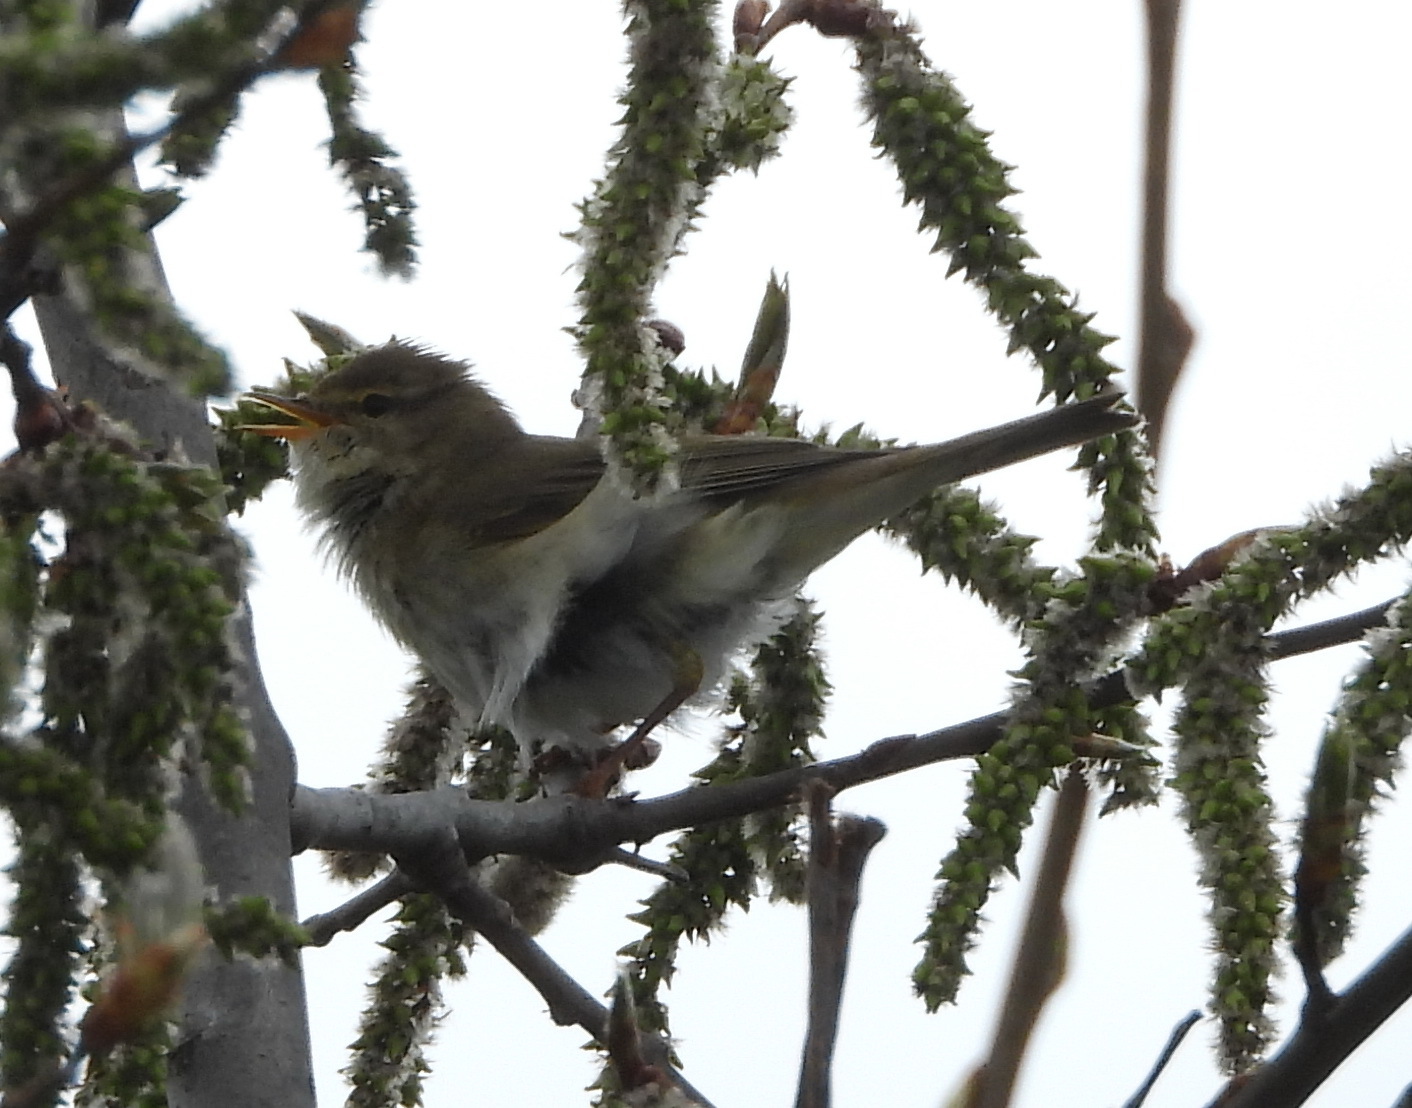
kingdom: Animalia
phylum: Chordata
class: Aves
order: Passeriformes
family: Phylloscopidae
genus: Phylloscopus
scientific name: Phylloscopus trochilus
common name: Willow warbler
